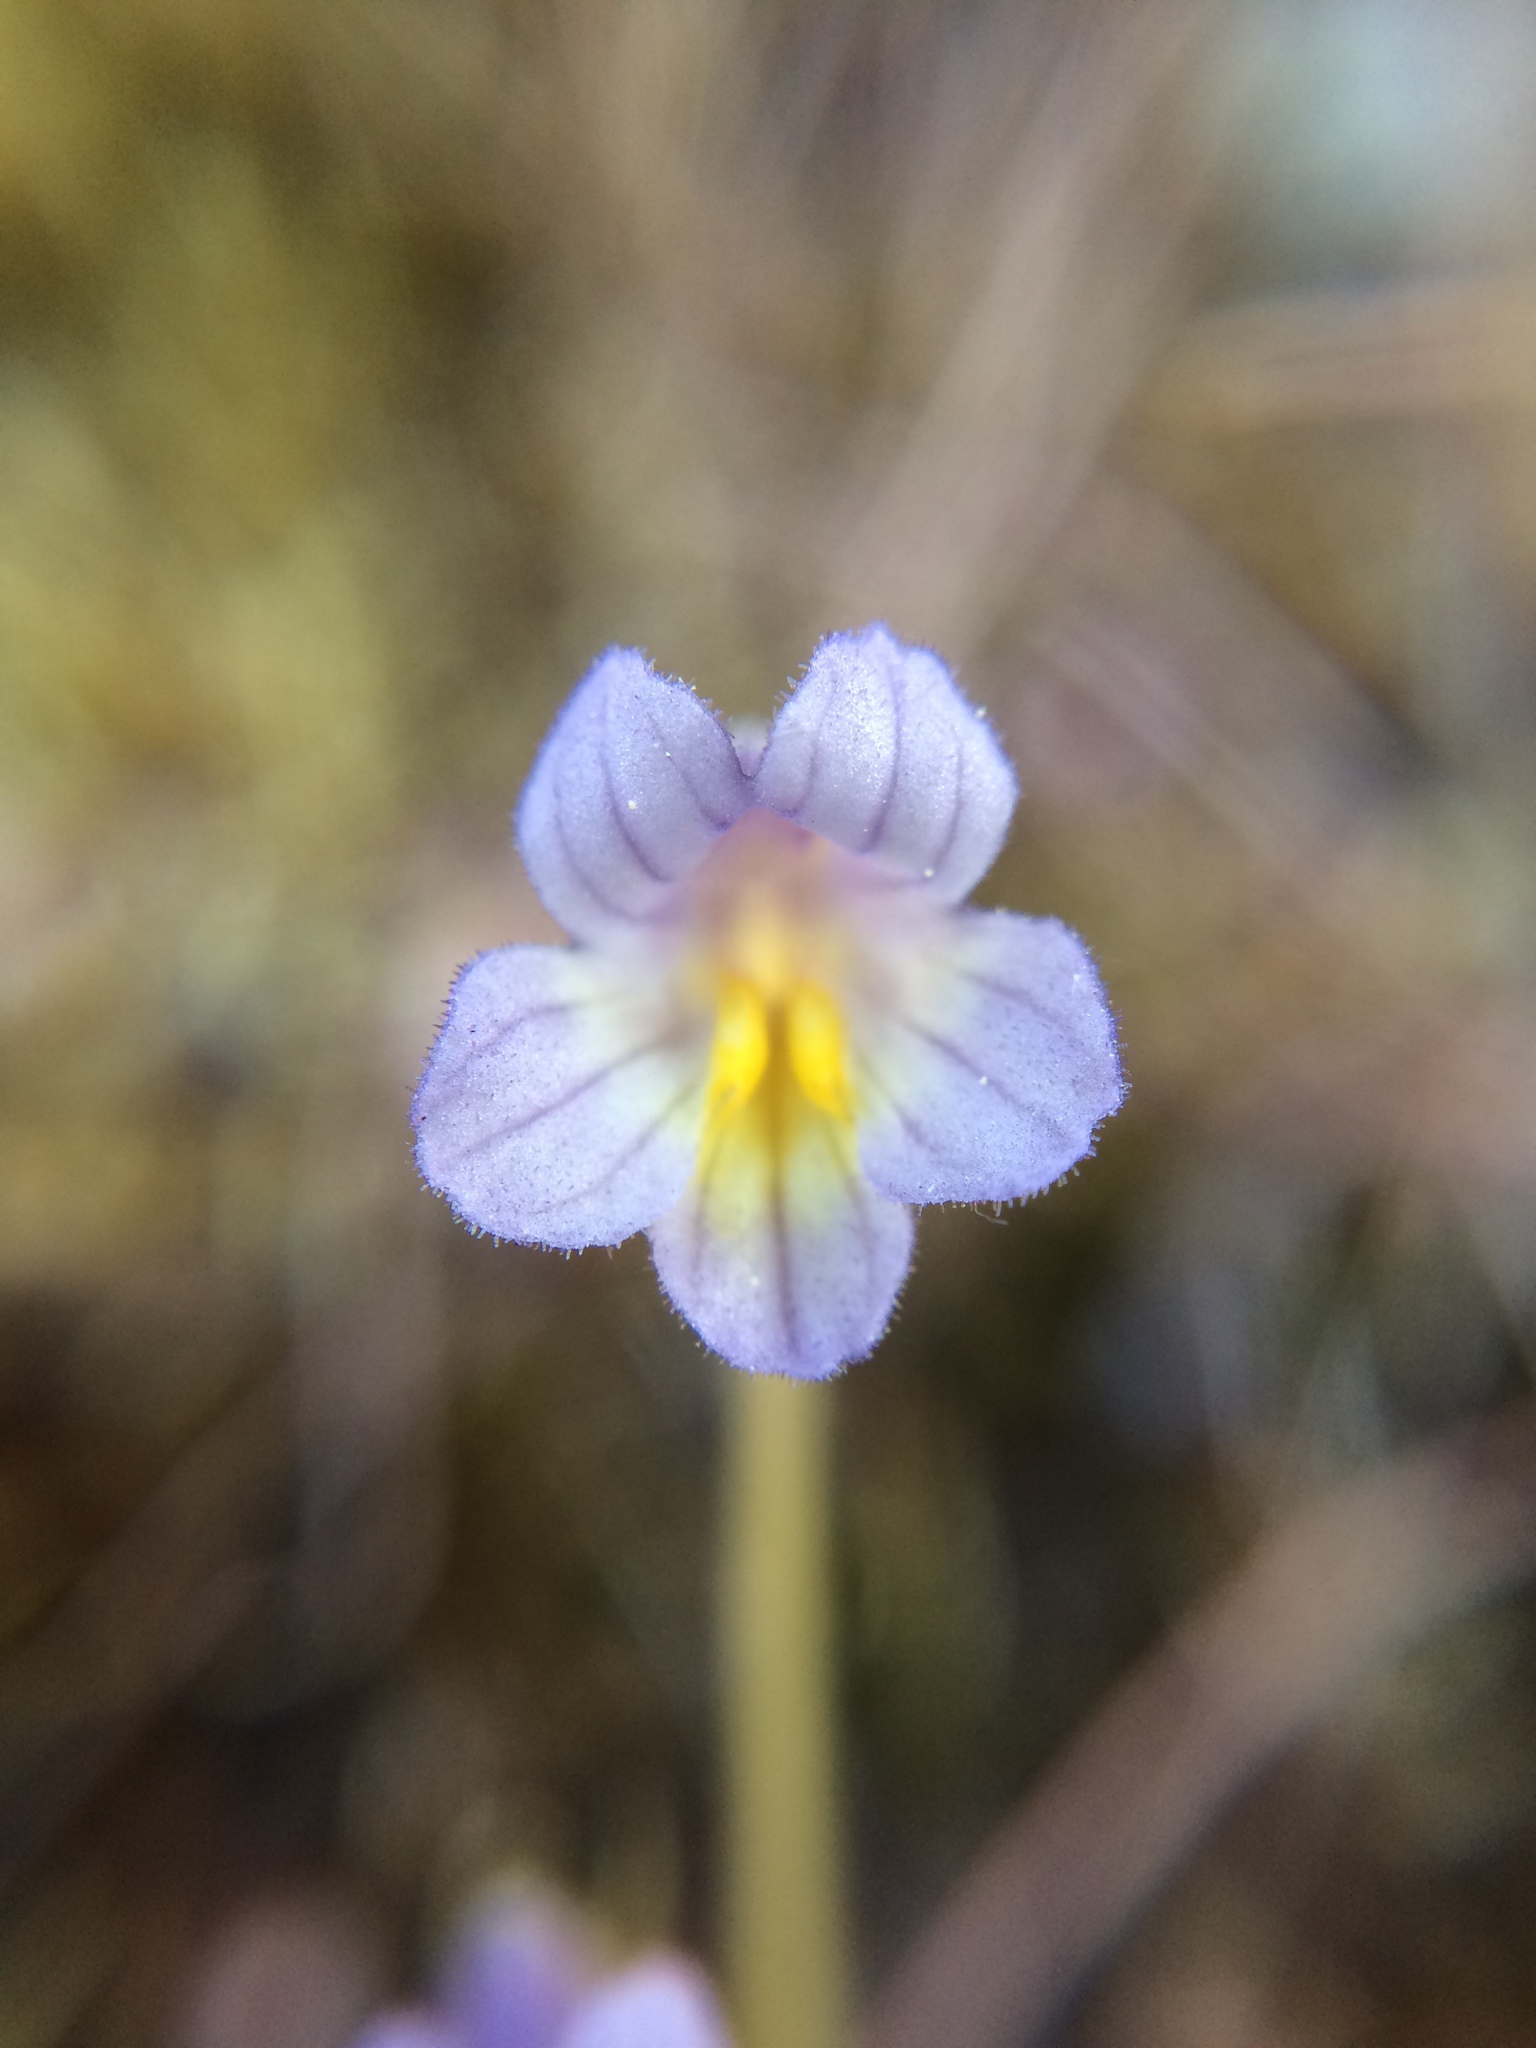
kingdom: Plantae
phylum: Tracheophyta
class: Magnoliopsida
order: Lamiales
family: Orobanchaceae
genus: Aphyllon
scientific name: Aphyllon uniflorum
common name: One-flowered broomrape
